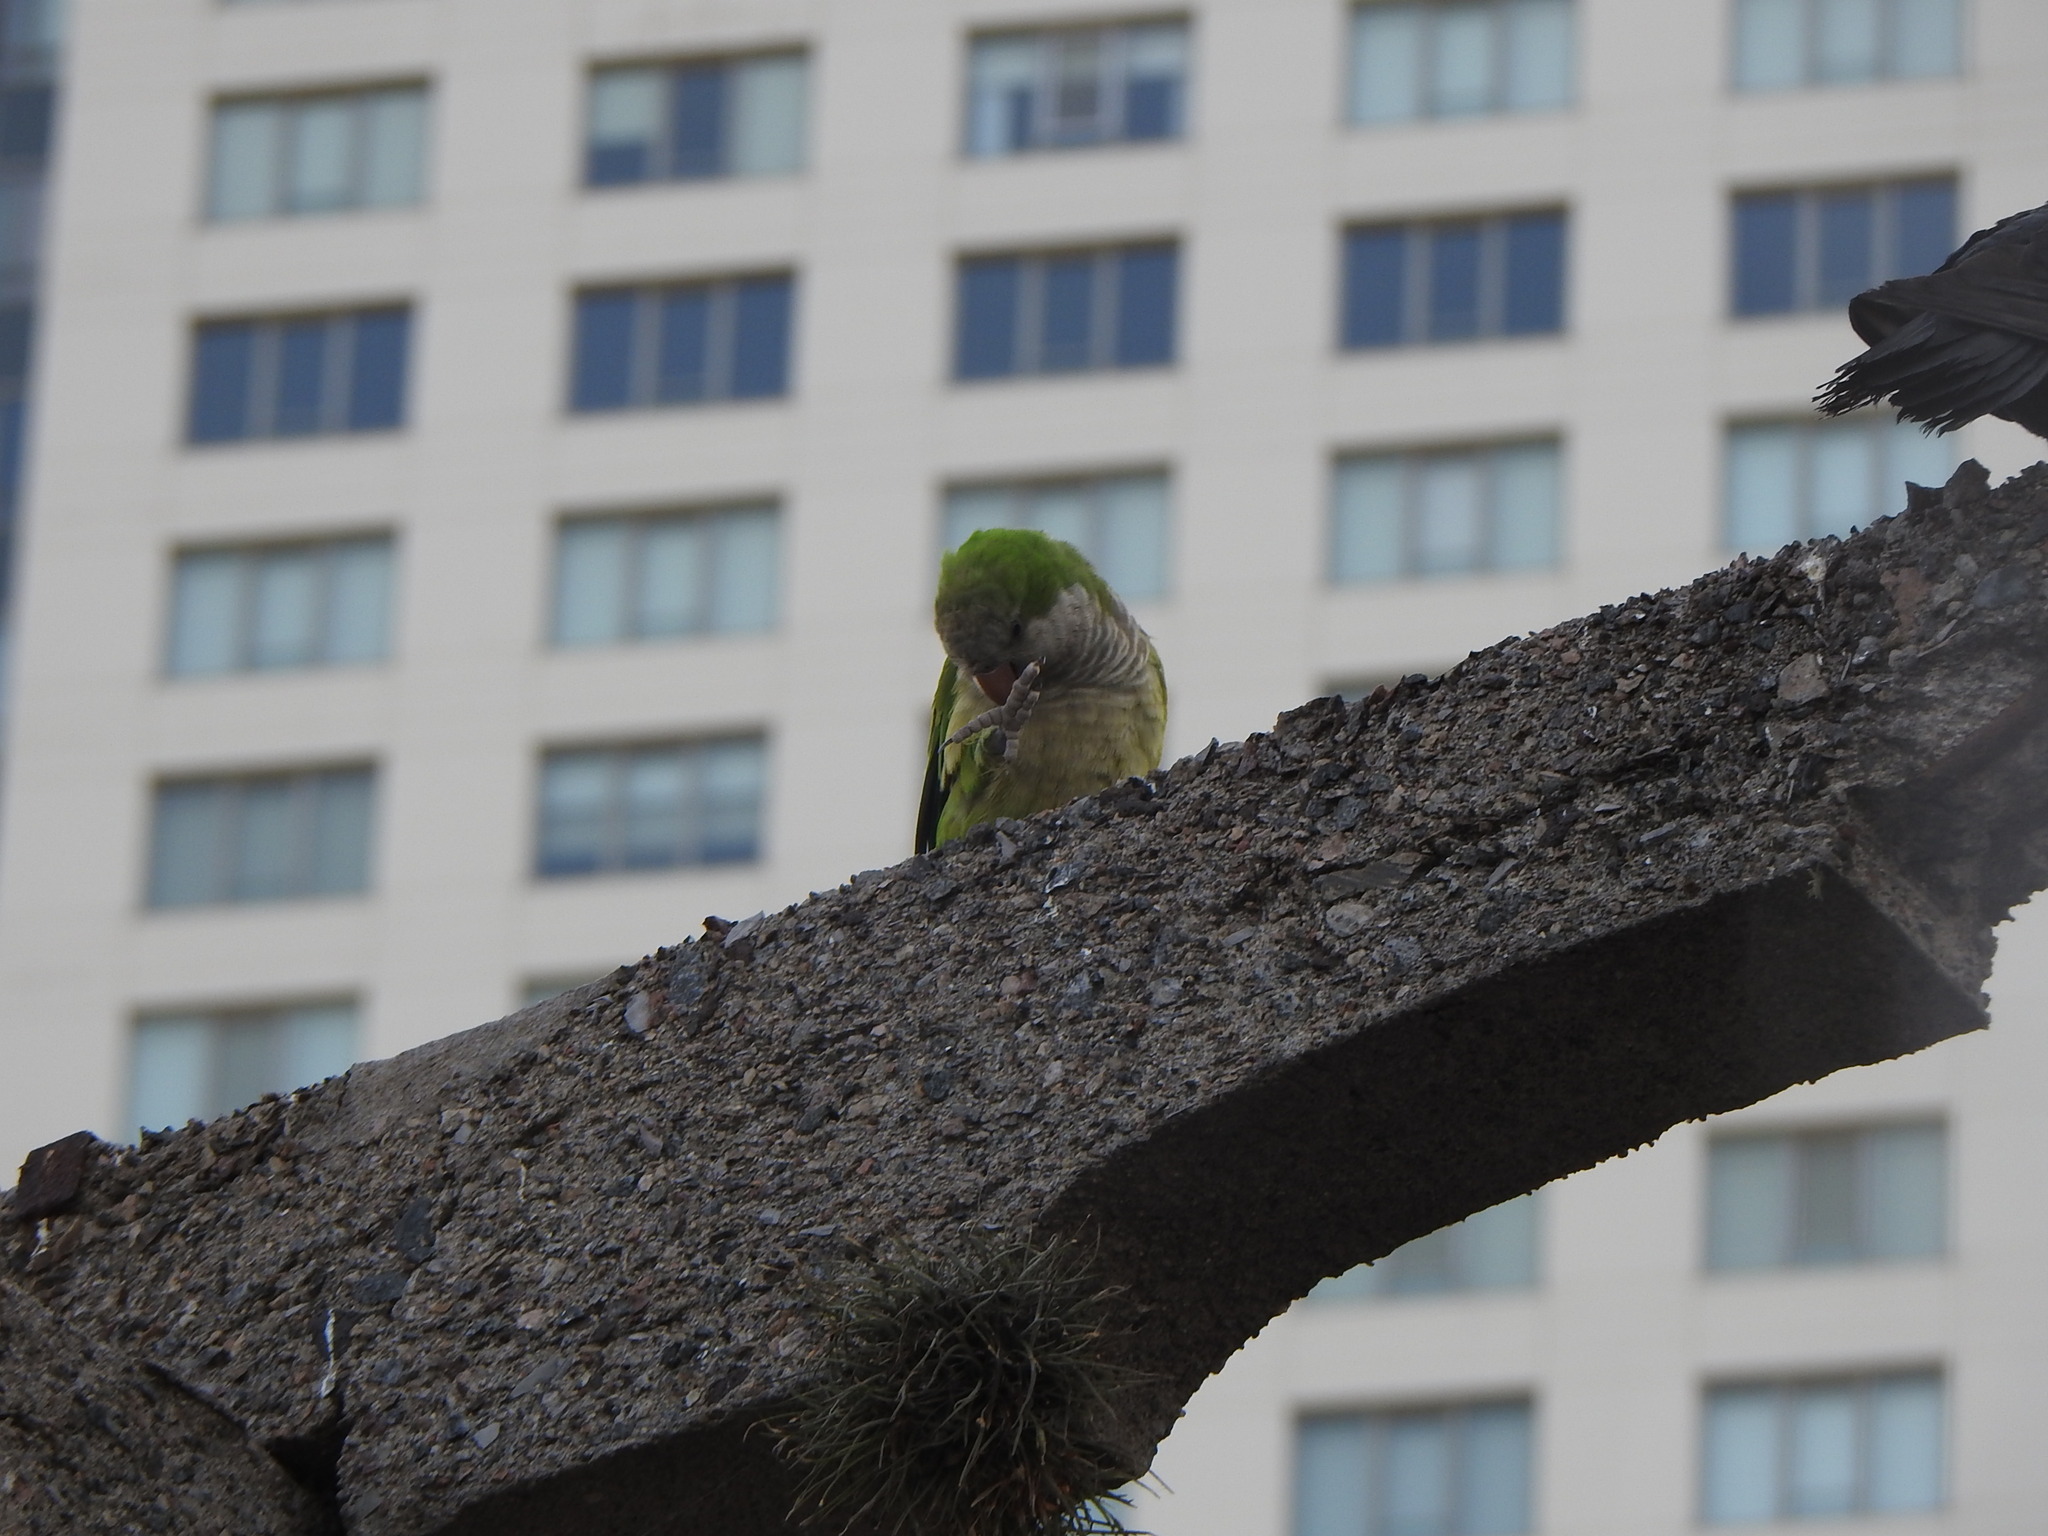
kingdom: Animalia
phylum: Chordata
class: Aves
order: Psittaciformes
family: Psittacidae
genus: Myiopsitta
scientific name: Myiopsitta monachus
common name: Monk parakeet
